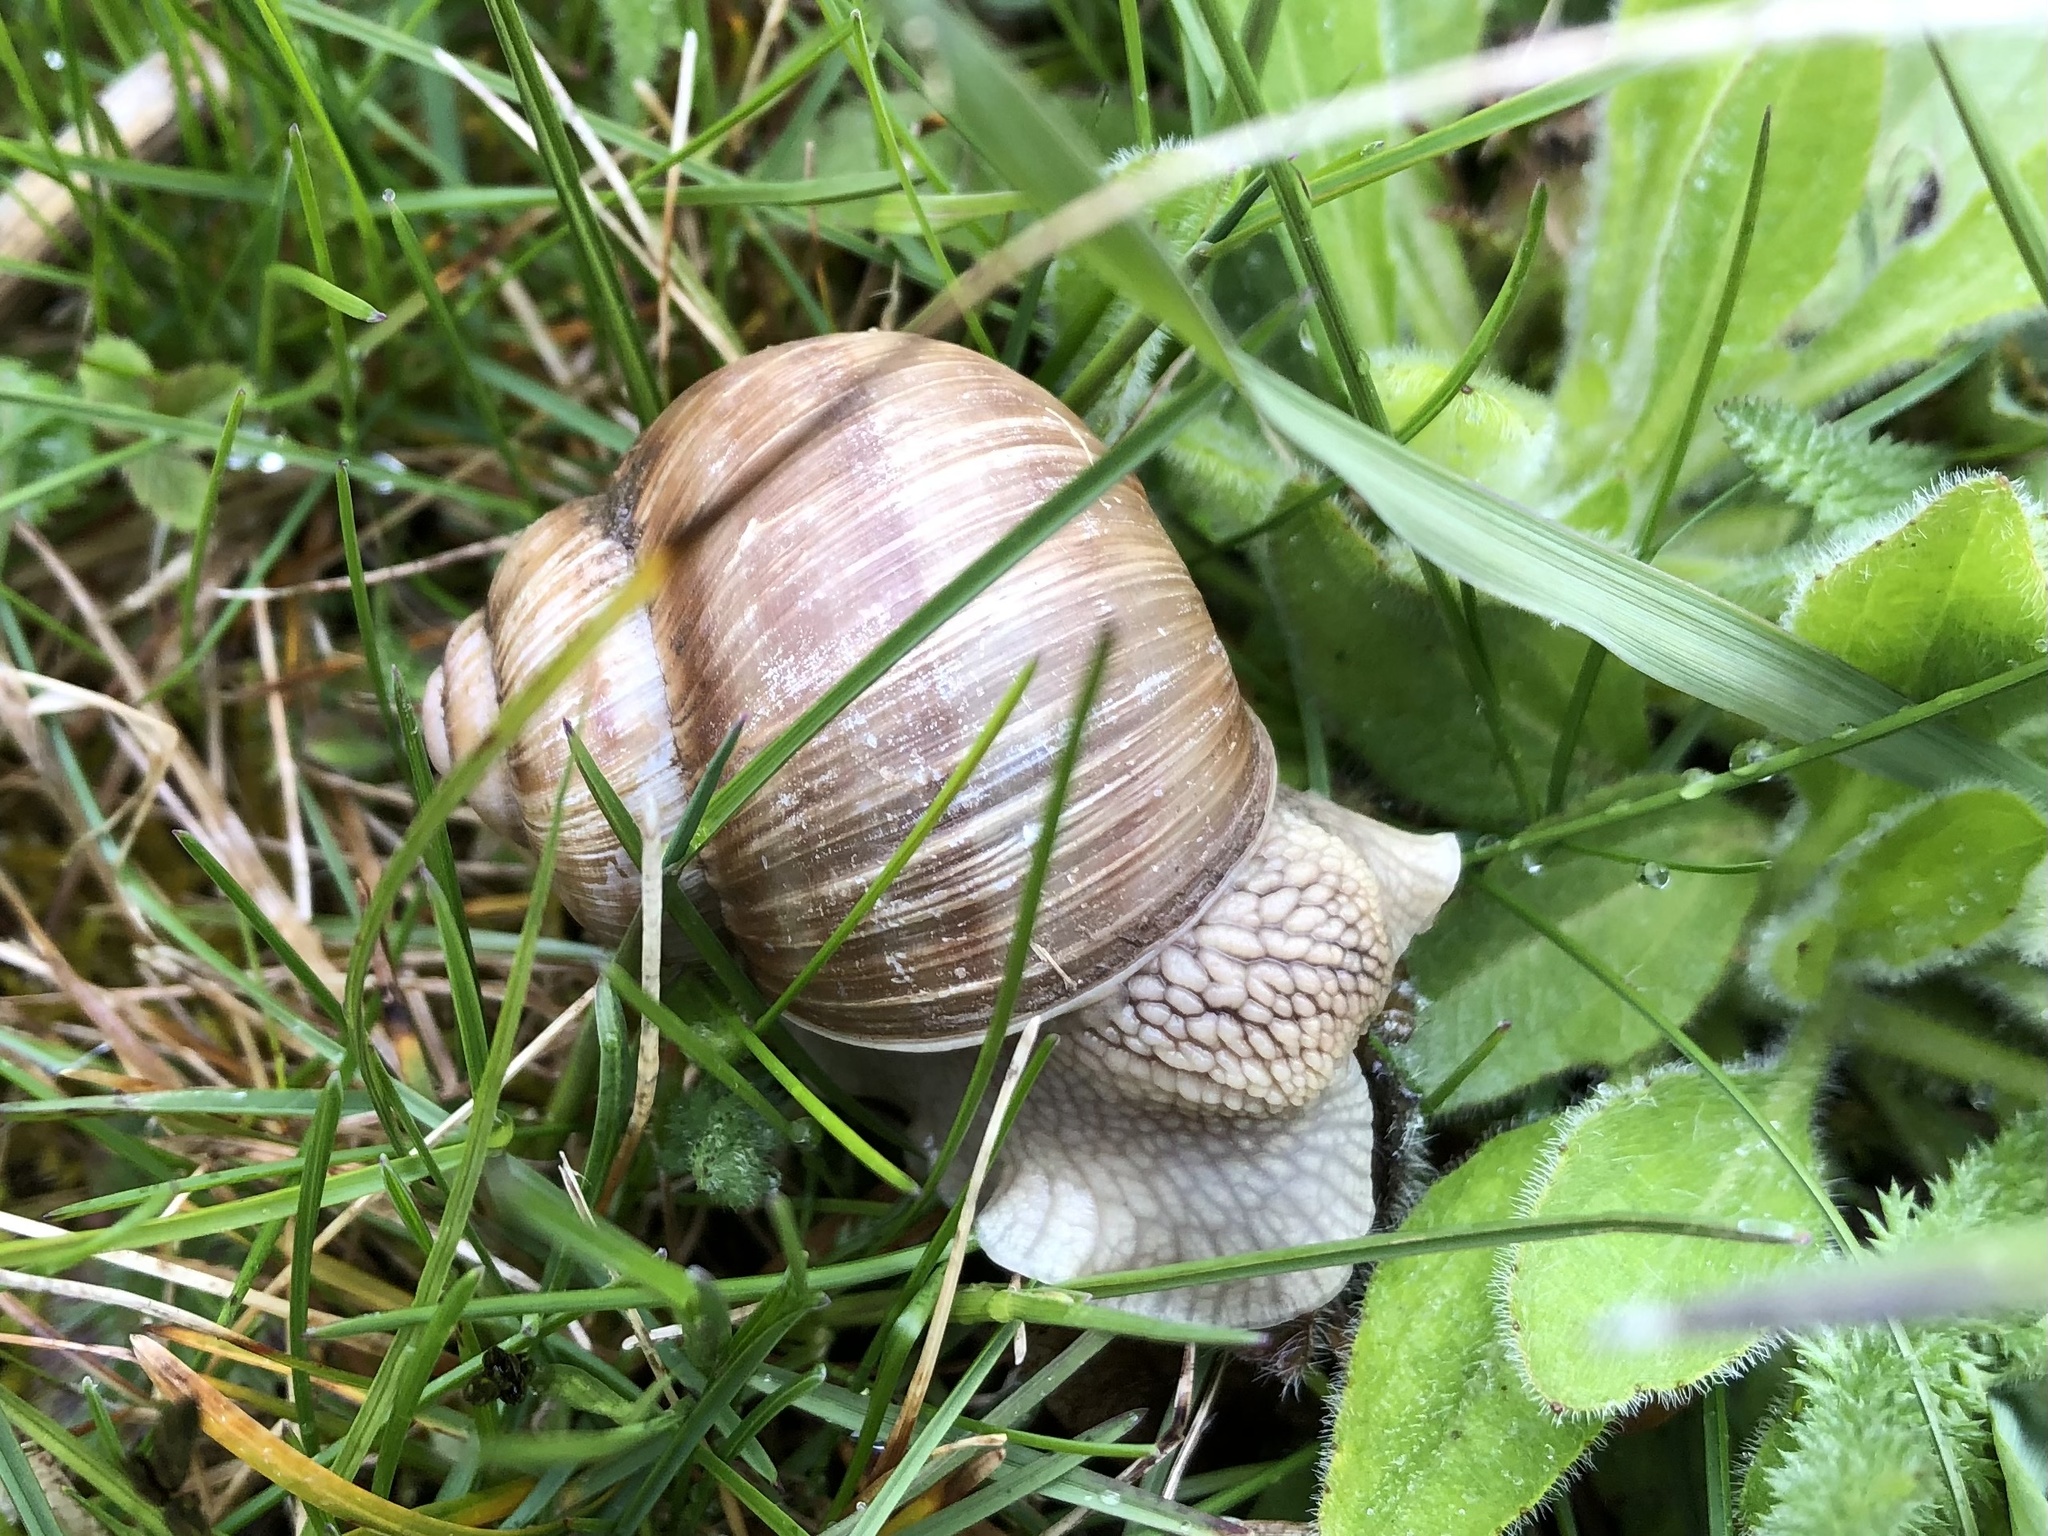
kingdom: Animalia
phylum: Mollusca
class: Gastropoda
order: Stylommatophora
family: Helicidae
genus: Helix
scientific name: Helix pomatia
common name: Roman snail
